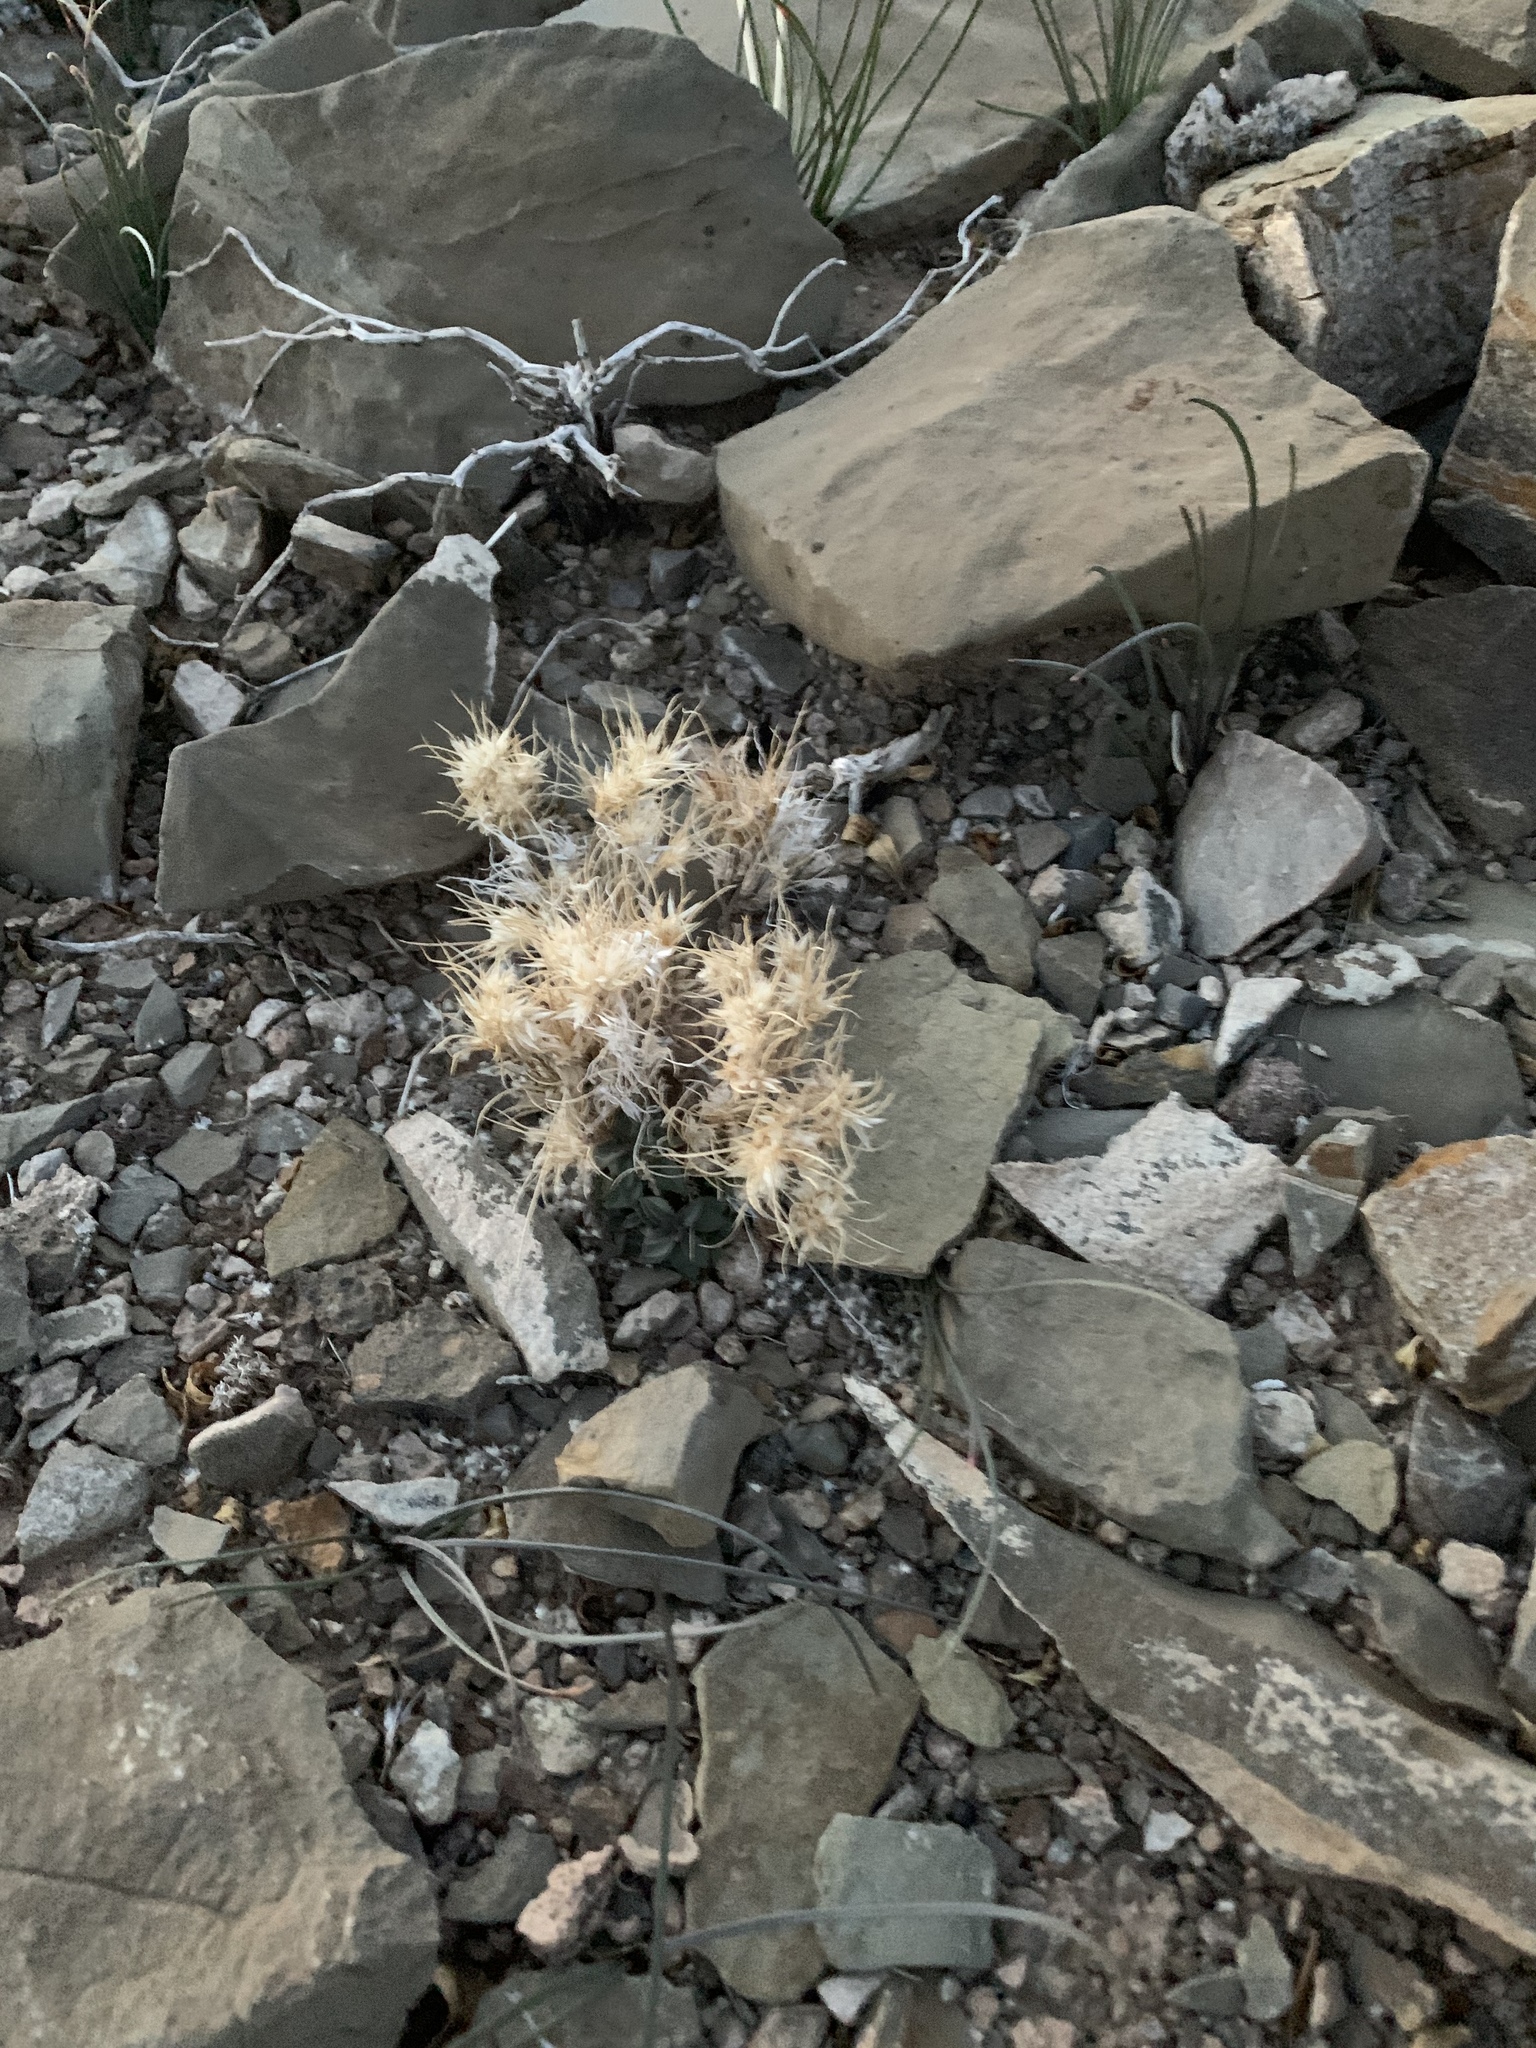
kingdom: Plantae
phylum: Tracheophyta
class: Liliopsida
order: Poales
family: Poaceae
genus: Dasyochloa
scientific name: Dasyochloa pulchella
